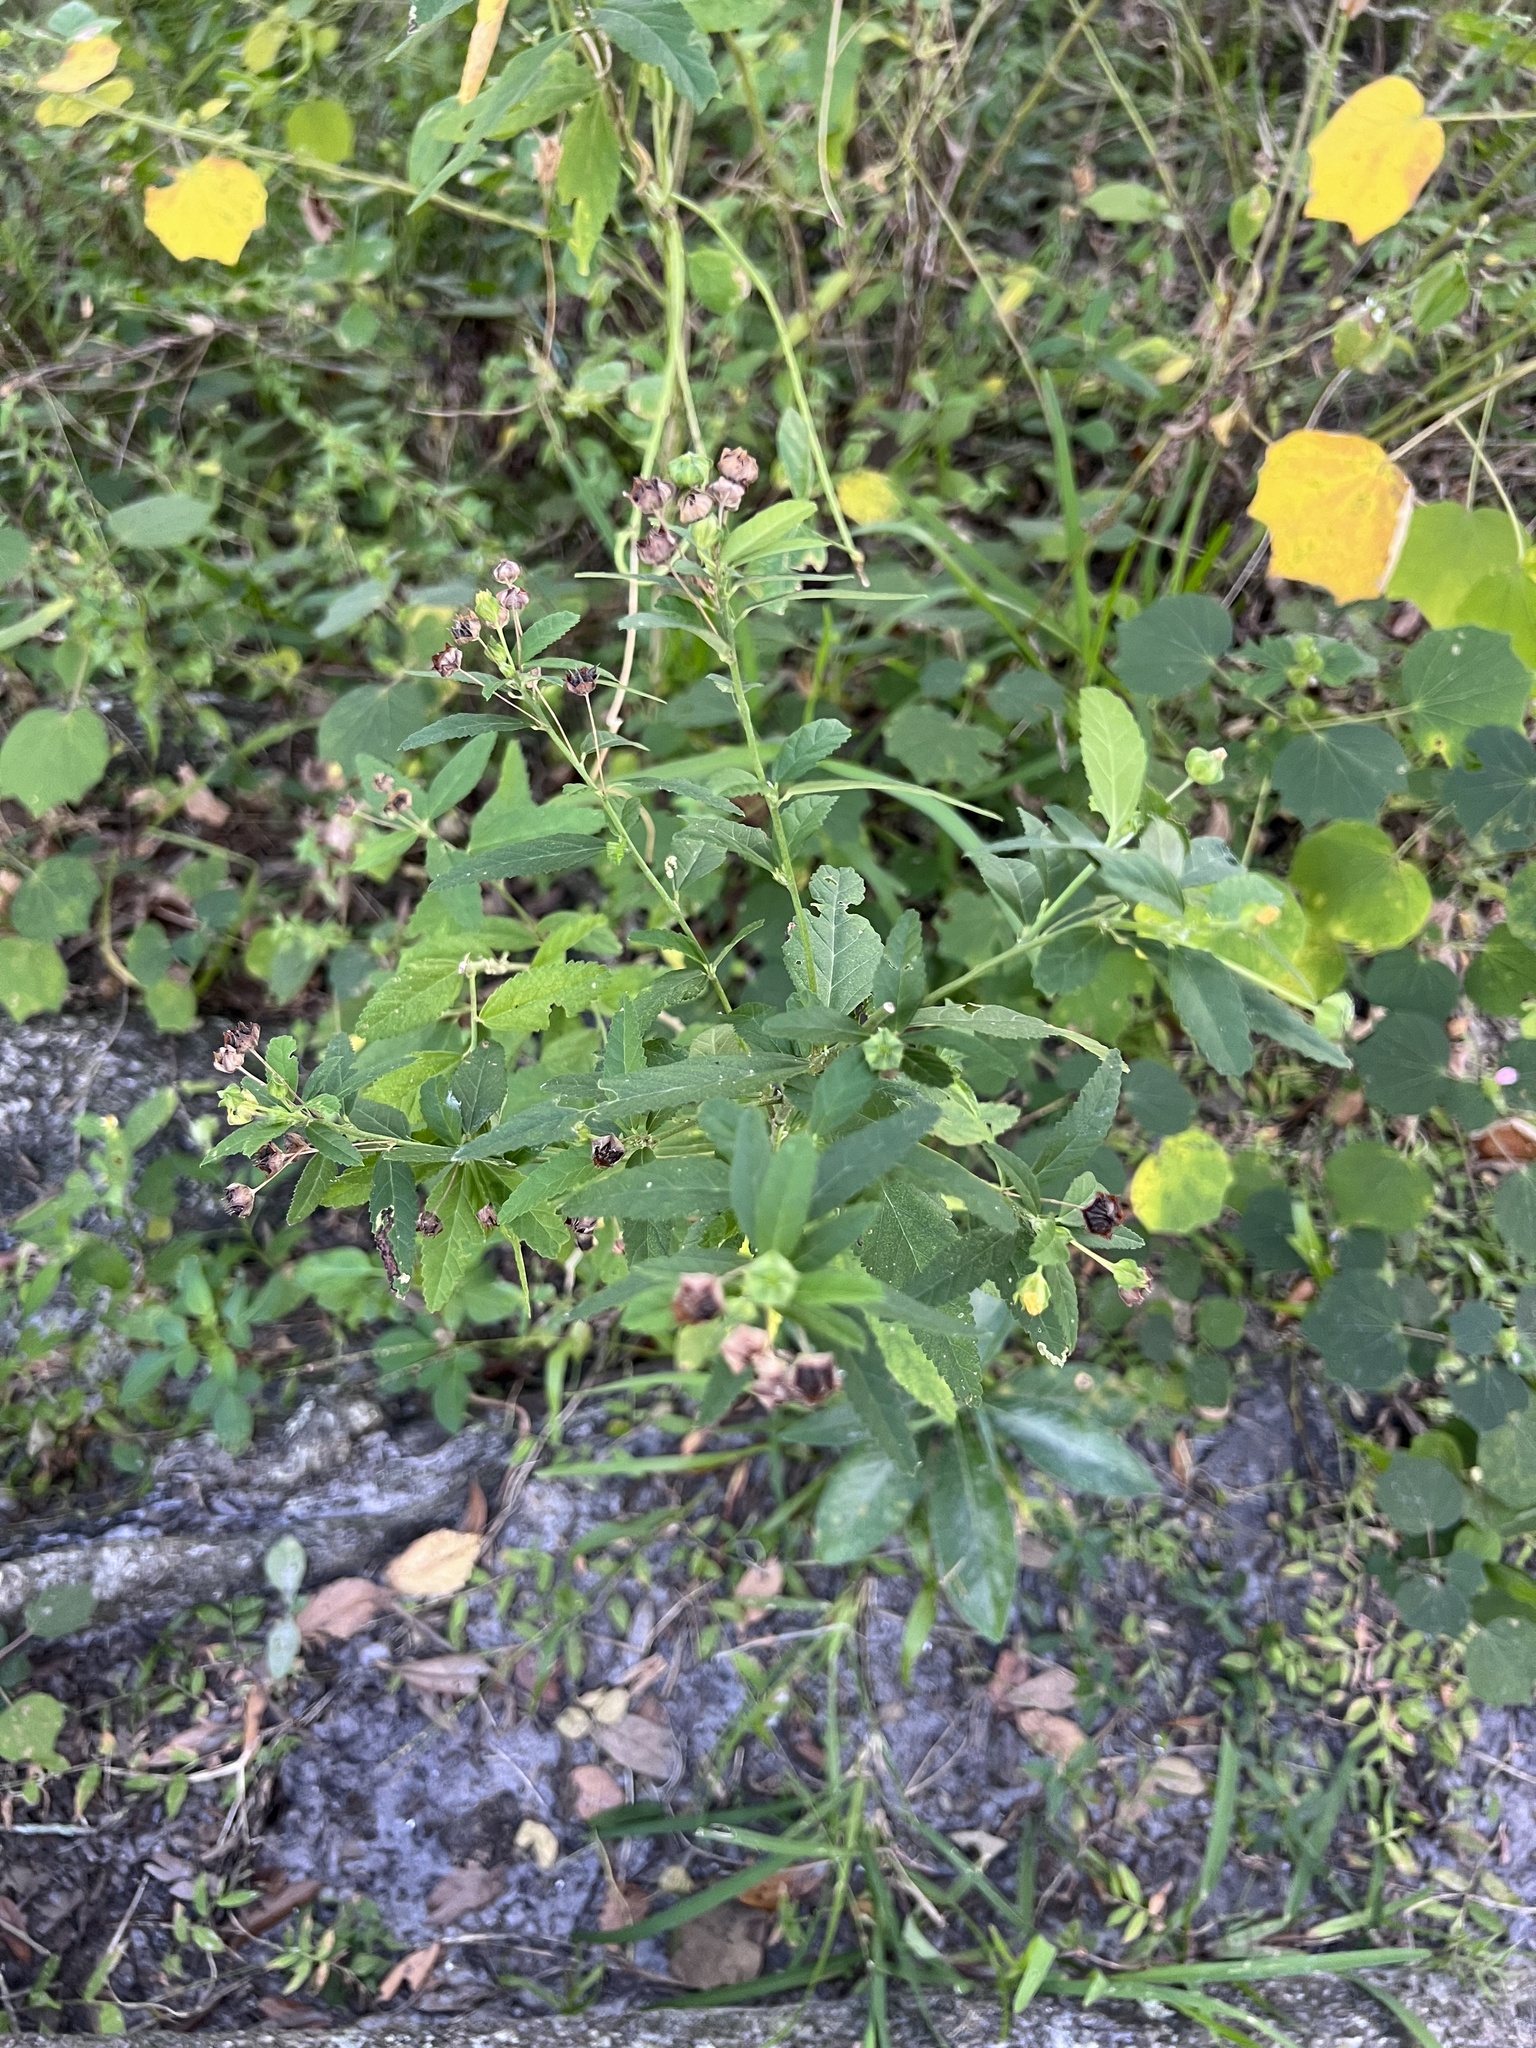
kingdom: Plantae
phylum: Tracheophyta
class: Magnoliopsida
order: Malvales
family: Malvaceae
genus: Sida
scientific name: Sida rhombifolia
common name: Queensland-hemp
